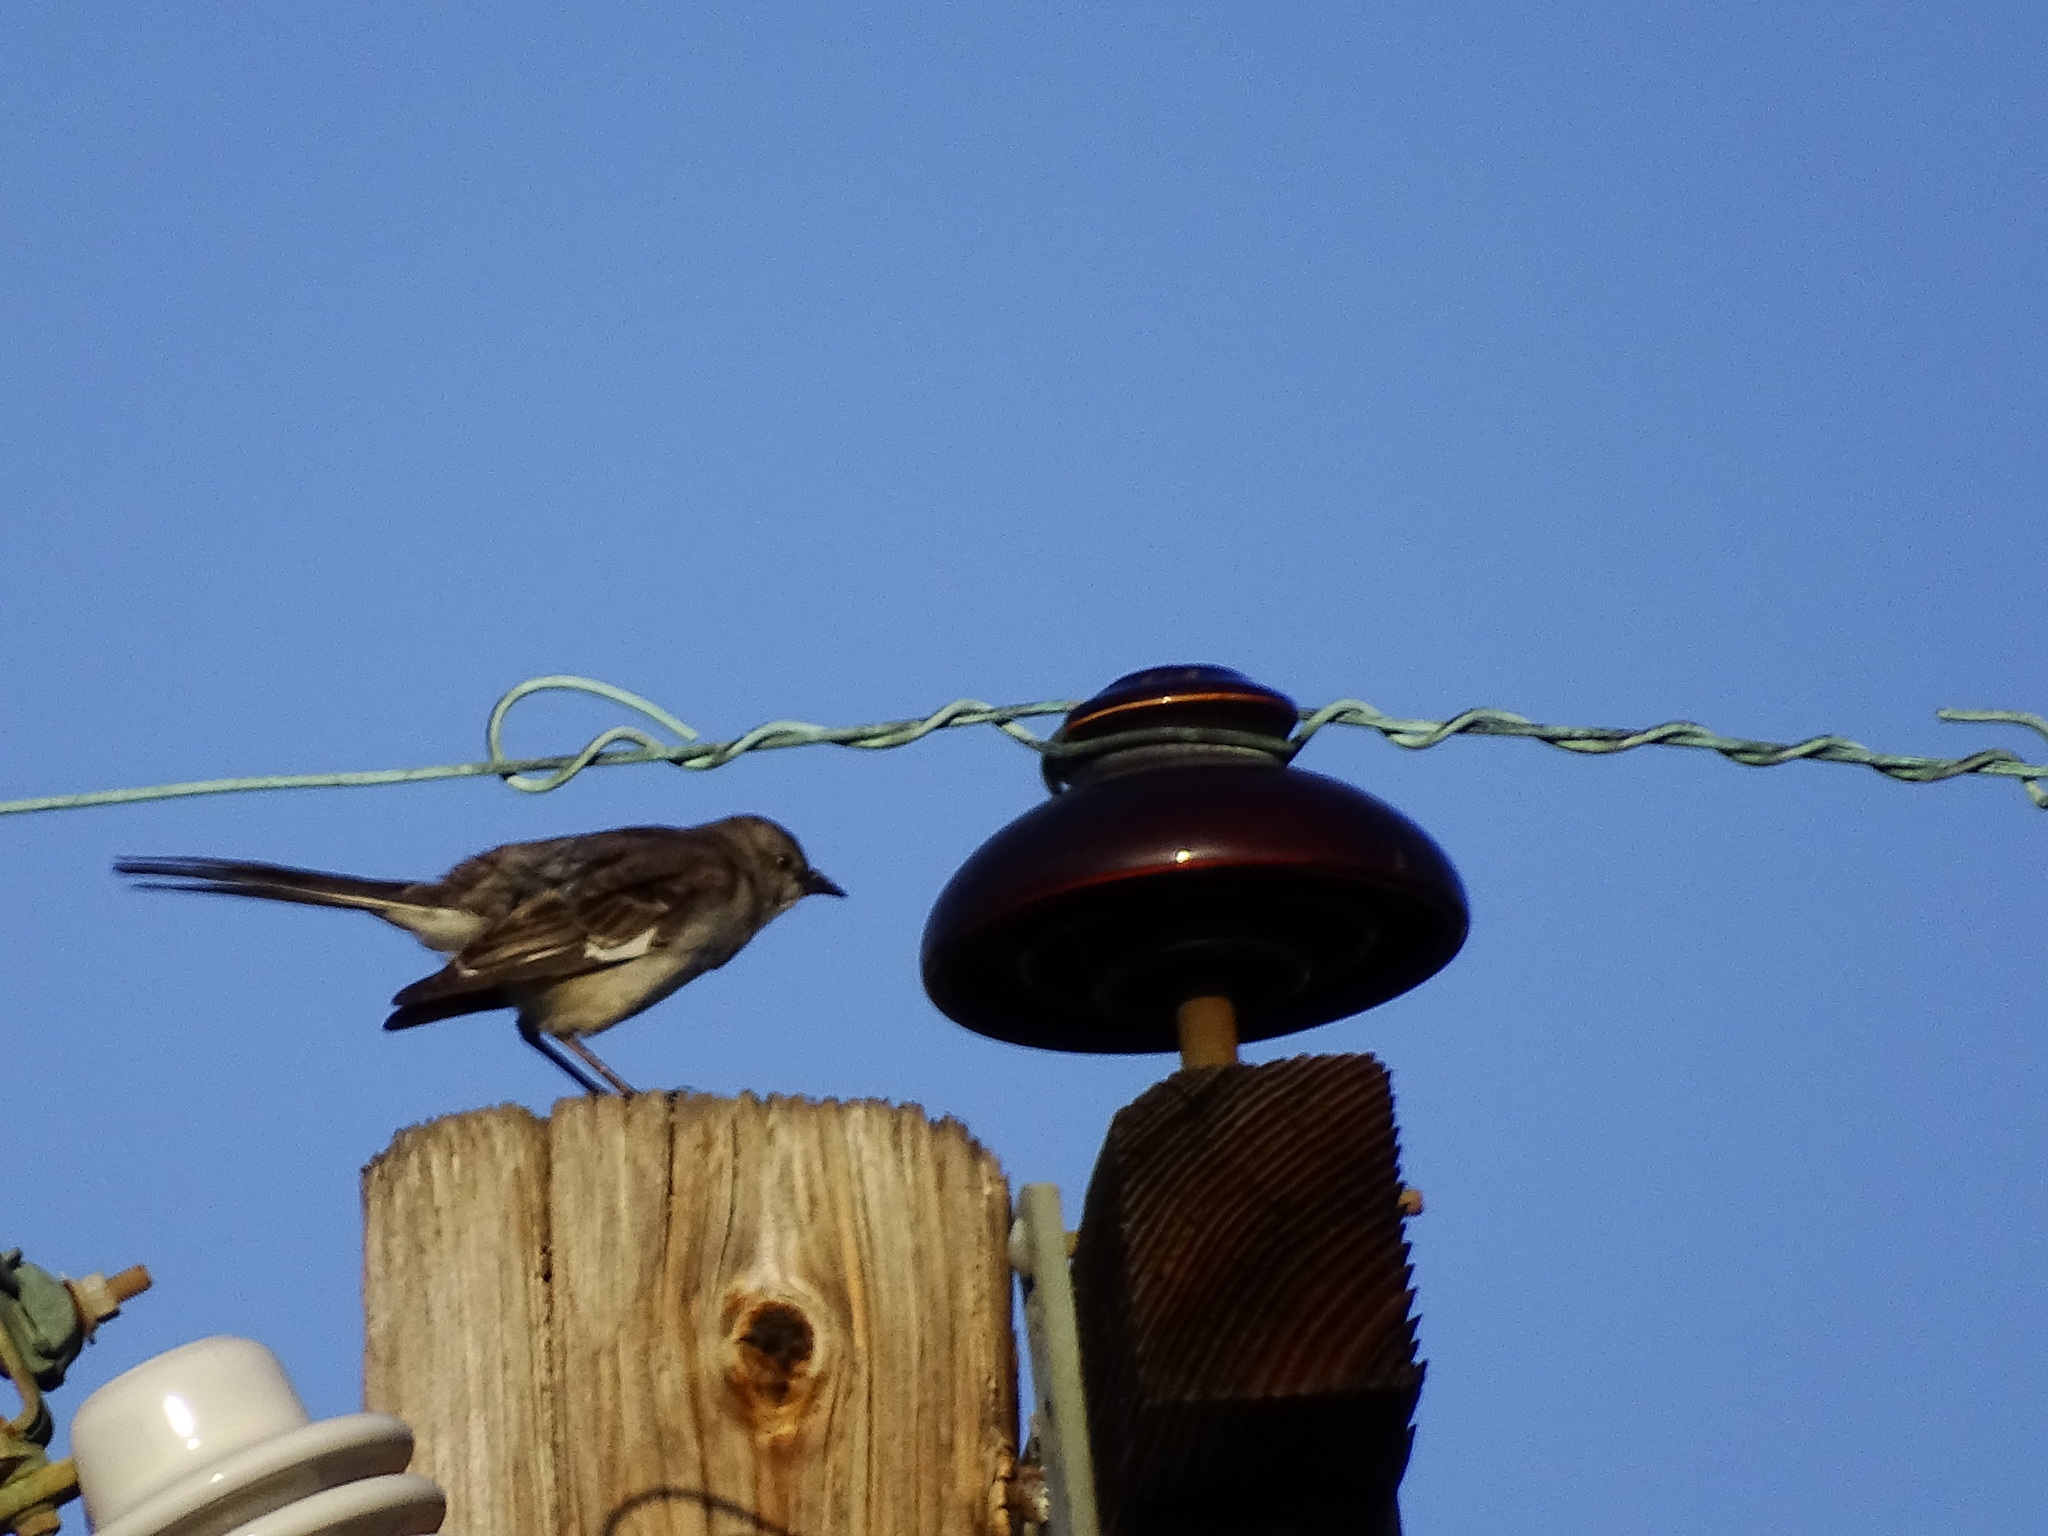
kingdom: Animalia
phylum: Chordata
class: Aves
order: Passeriformes
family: Mimidae
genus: Mimus
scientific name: Mimus polyglottos
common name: Northern mockingbird
